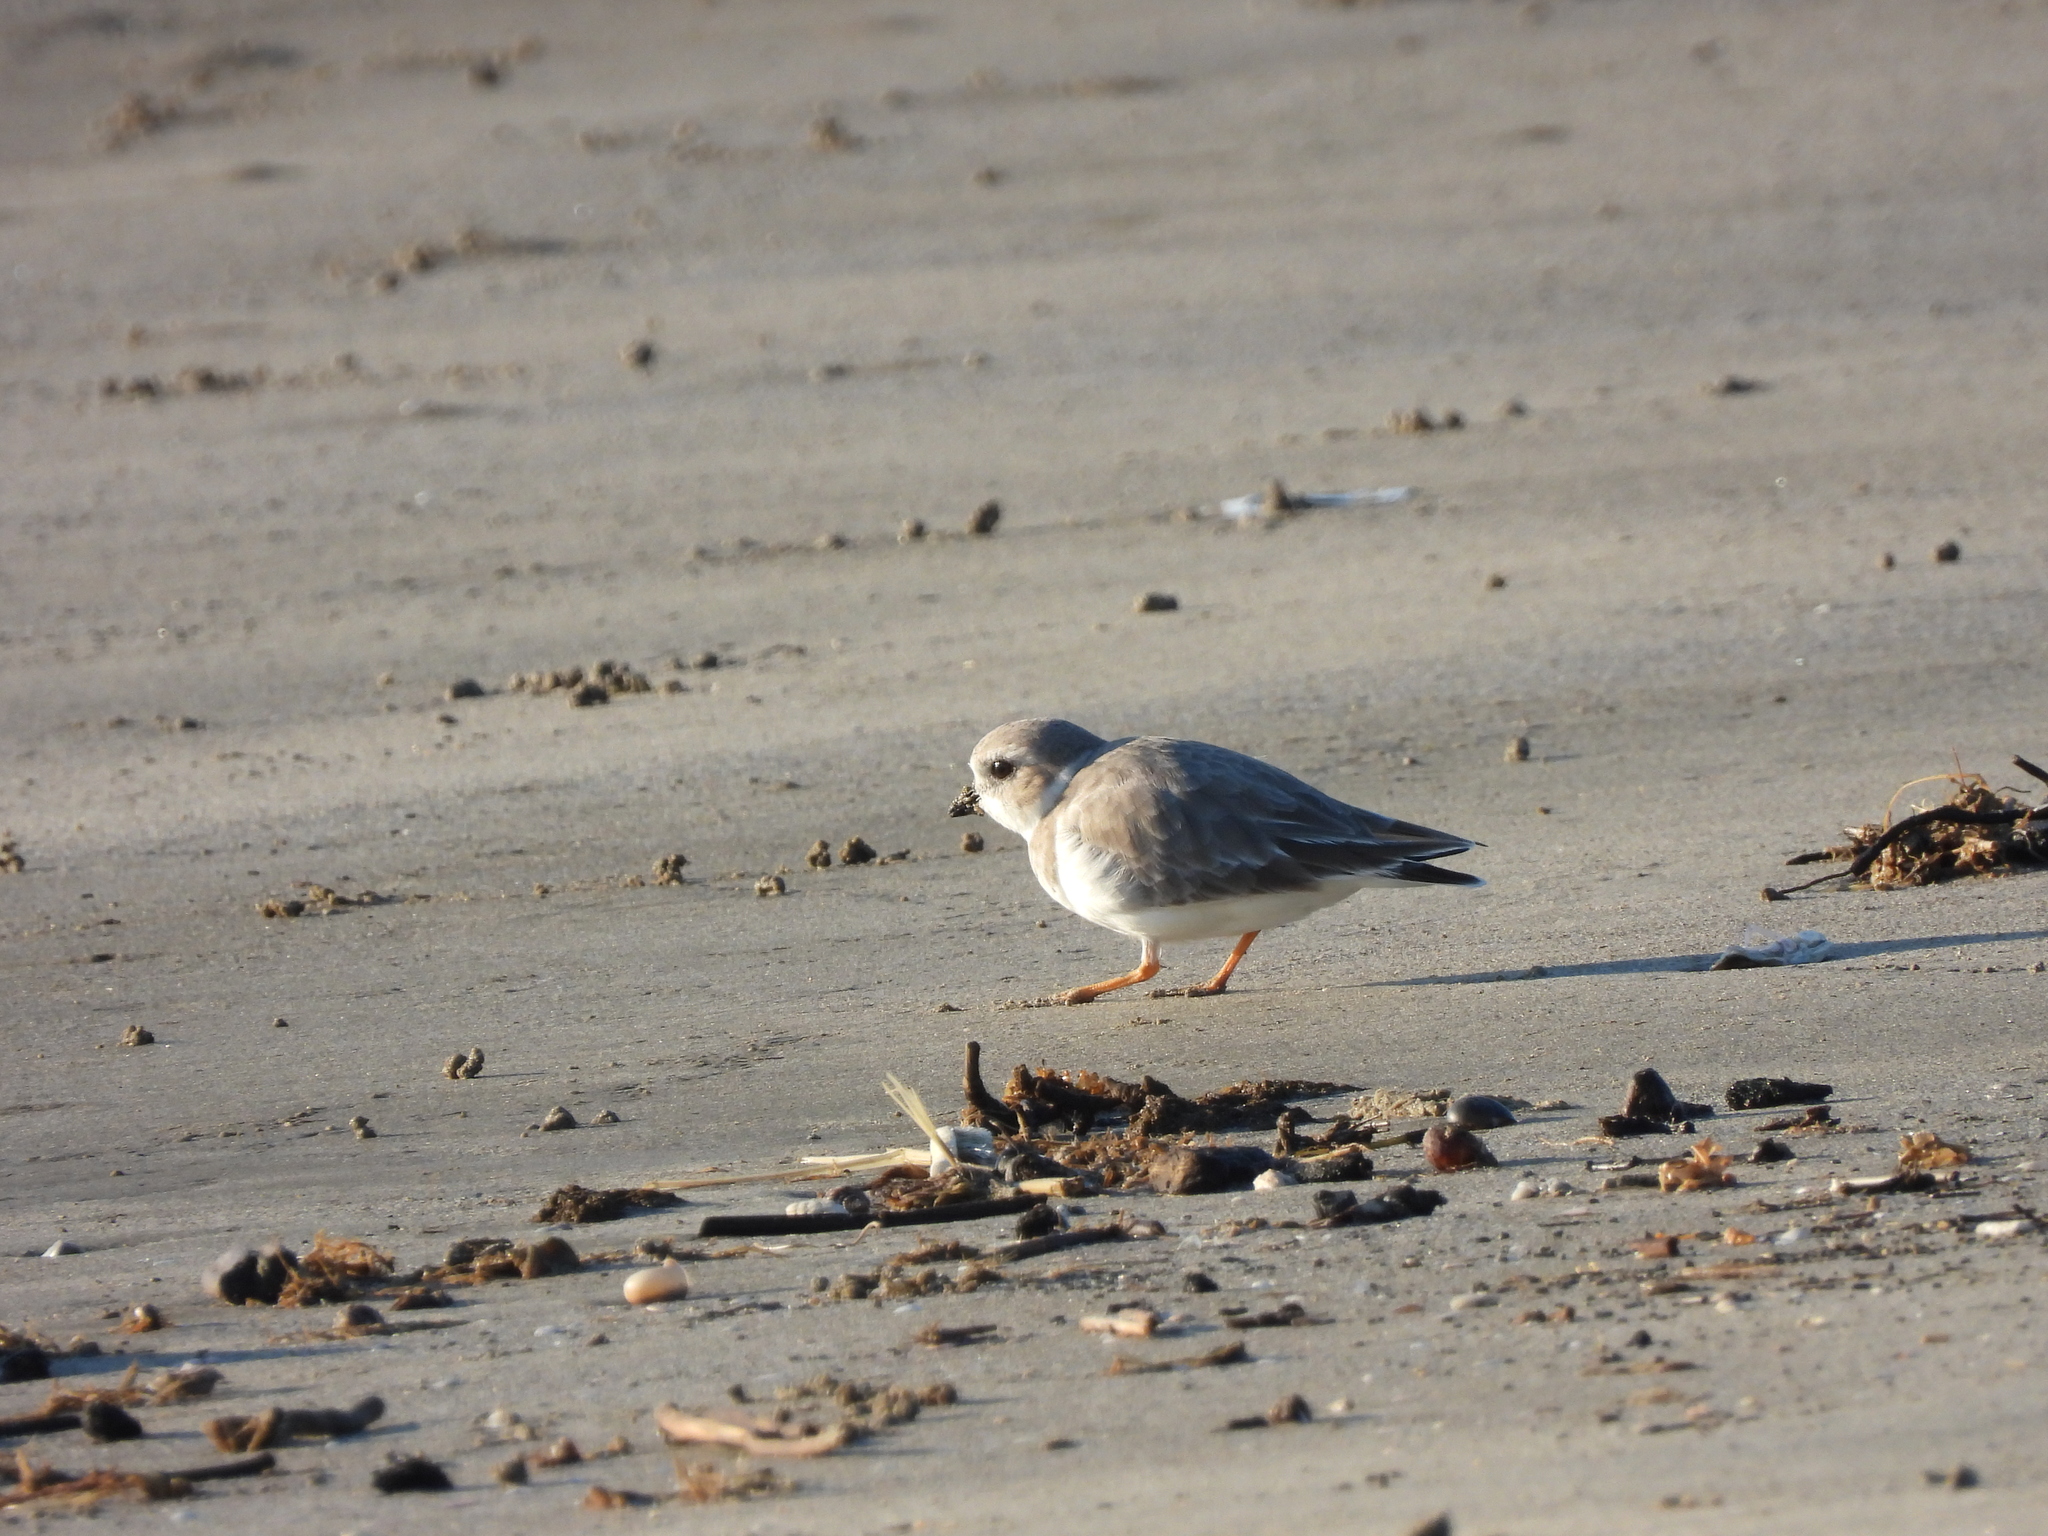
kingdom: Animalia
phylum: Chordata
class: Aves
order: Charadriiformes
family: Charadriidae
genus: Charadrius
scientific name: Charadrius melodus
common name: Piping plover
